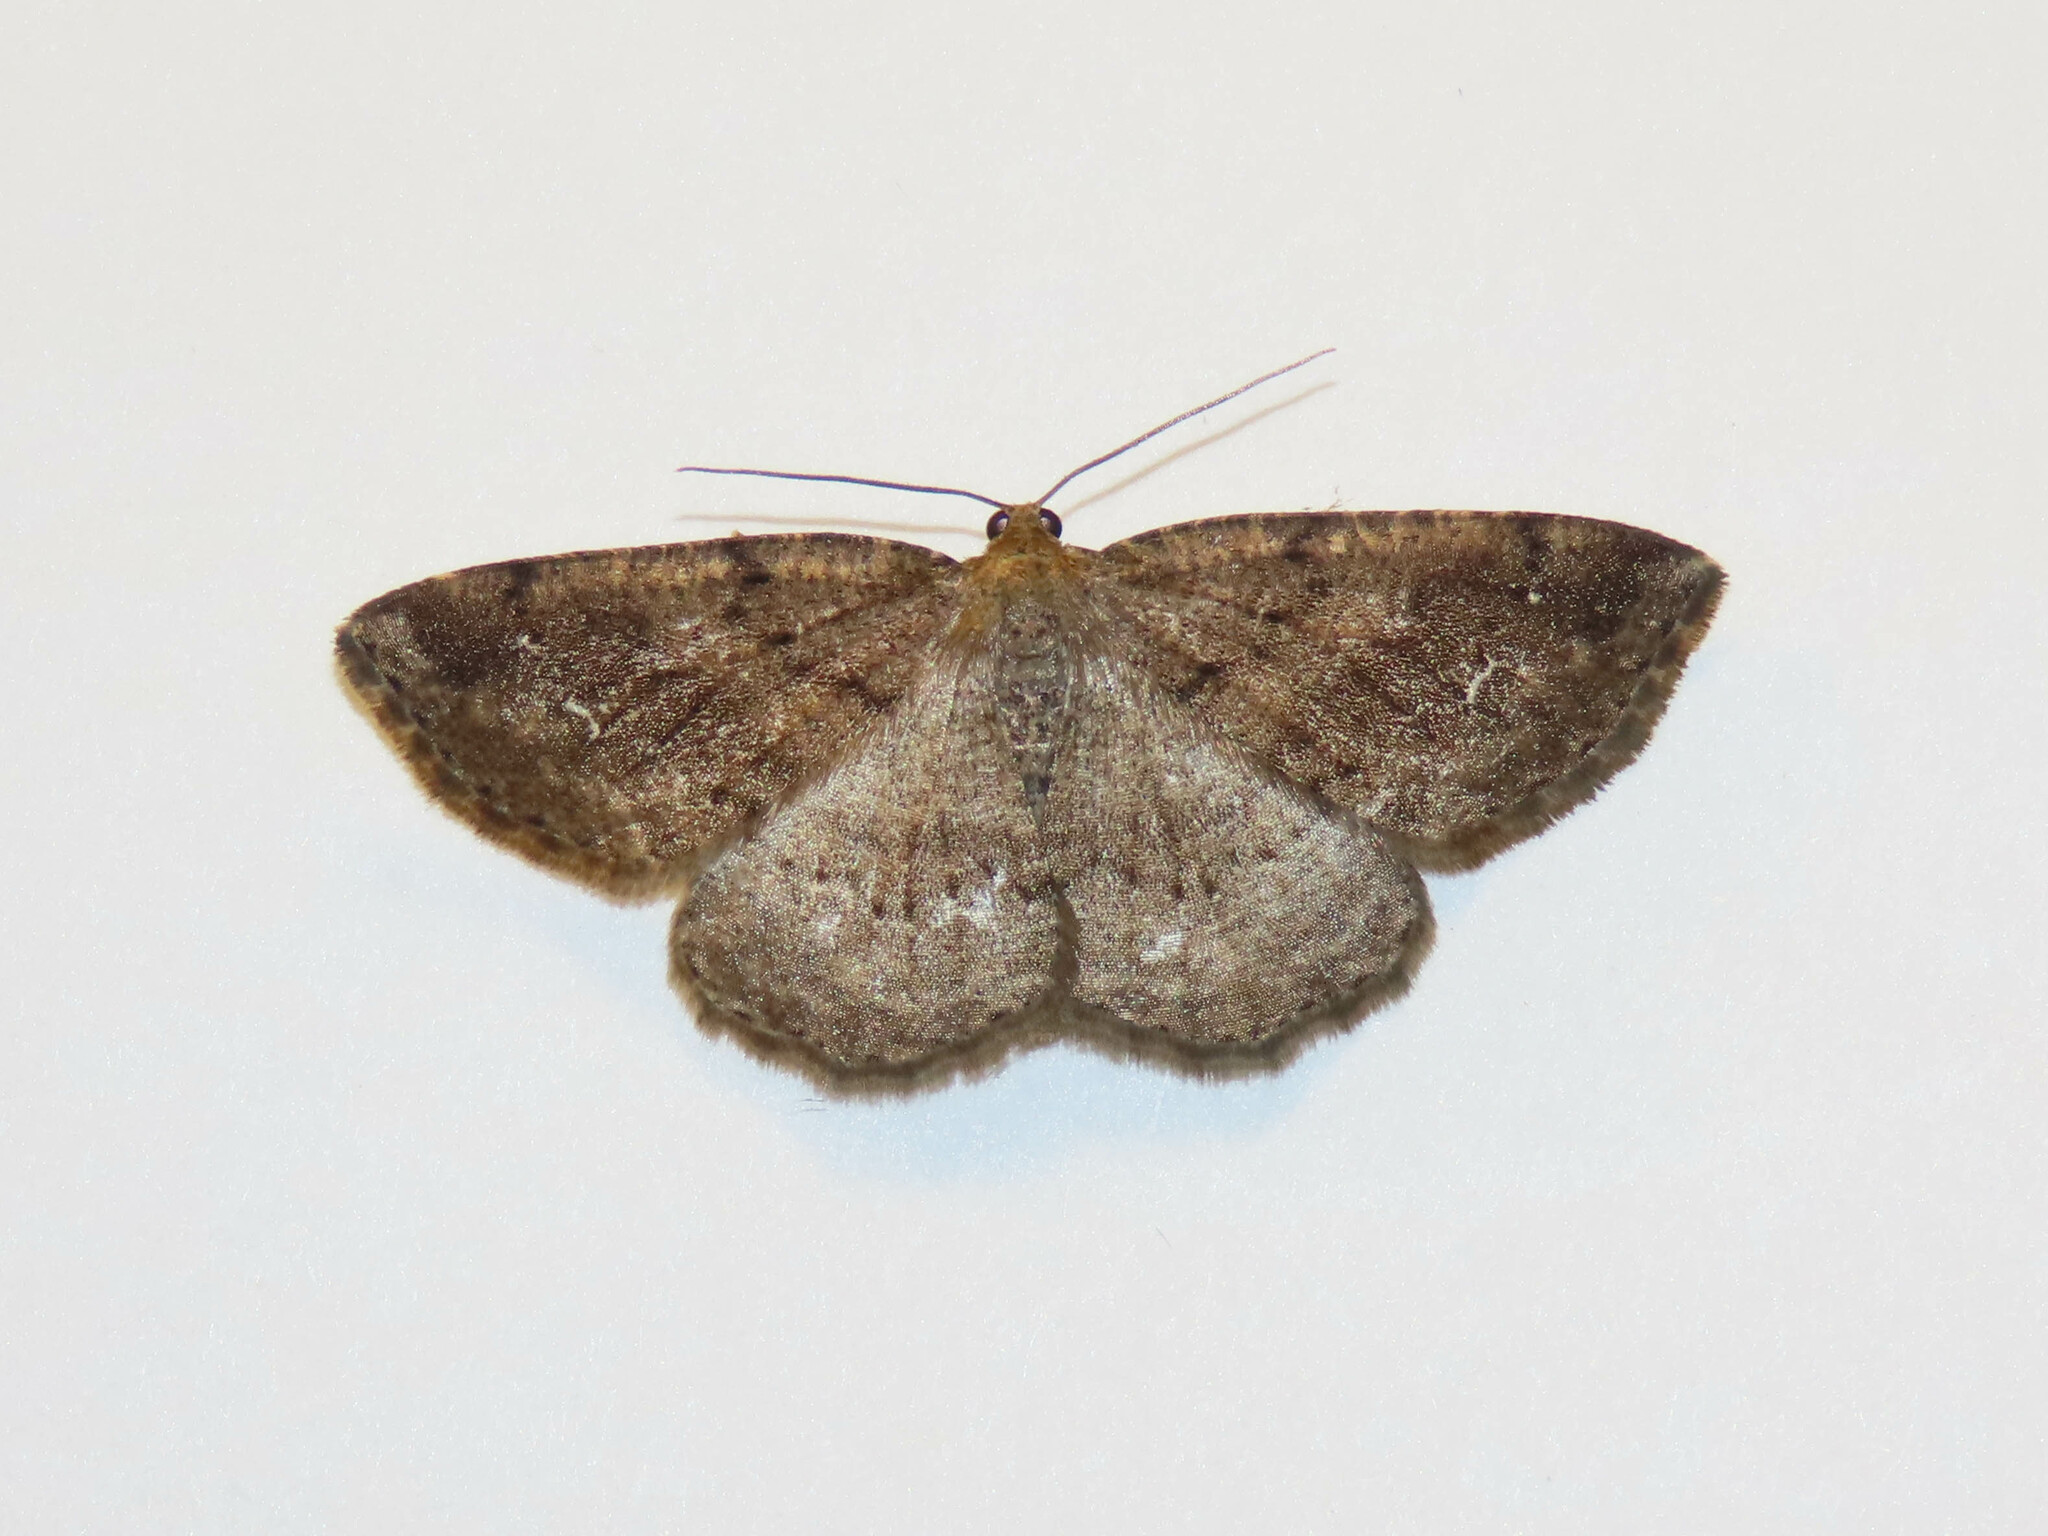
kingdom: Animalia
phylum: Arthropoda
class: Insecta
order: Lepidoptera
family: Geometridae
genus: Homochlodes
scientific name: Homochlodes fritillaria
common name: Pale homochlodes
